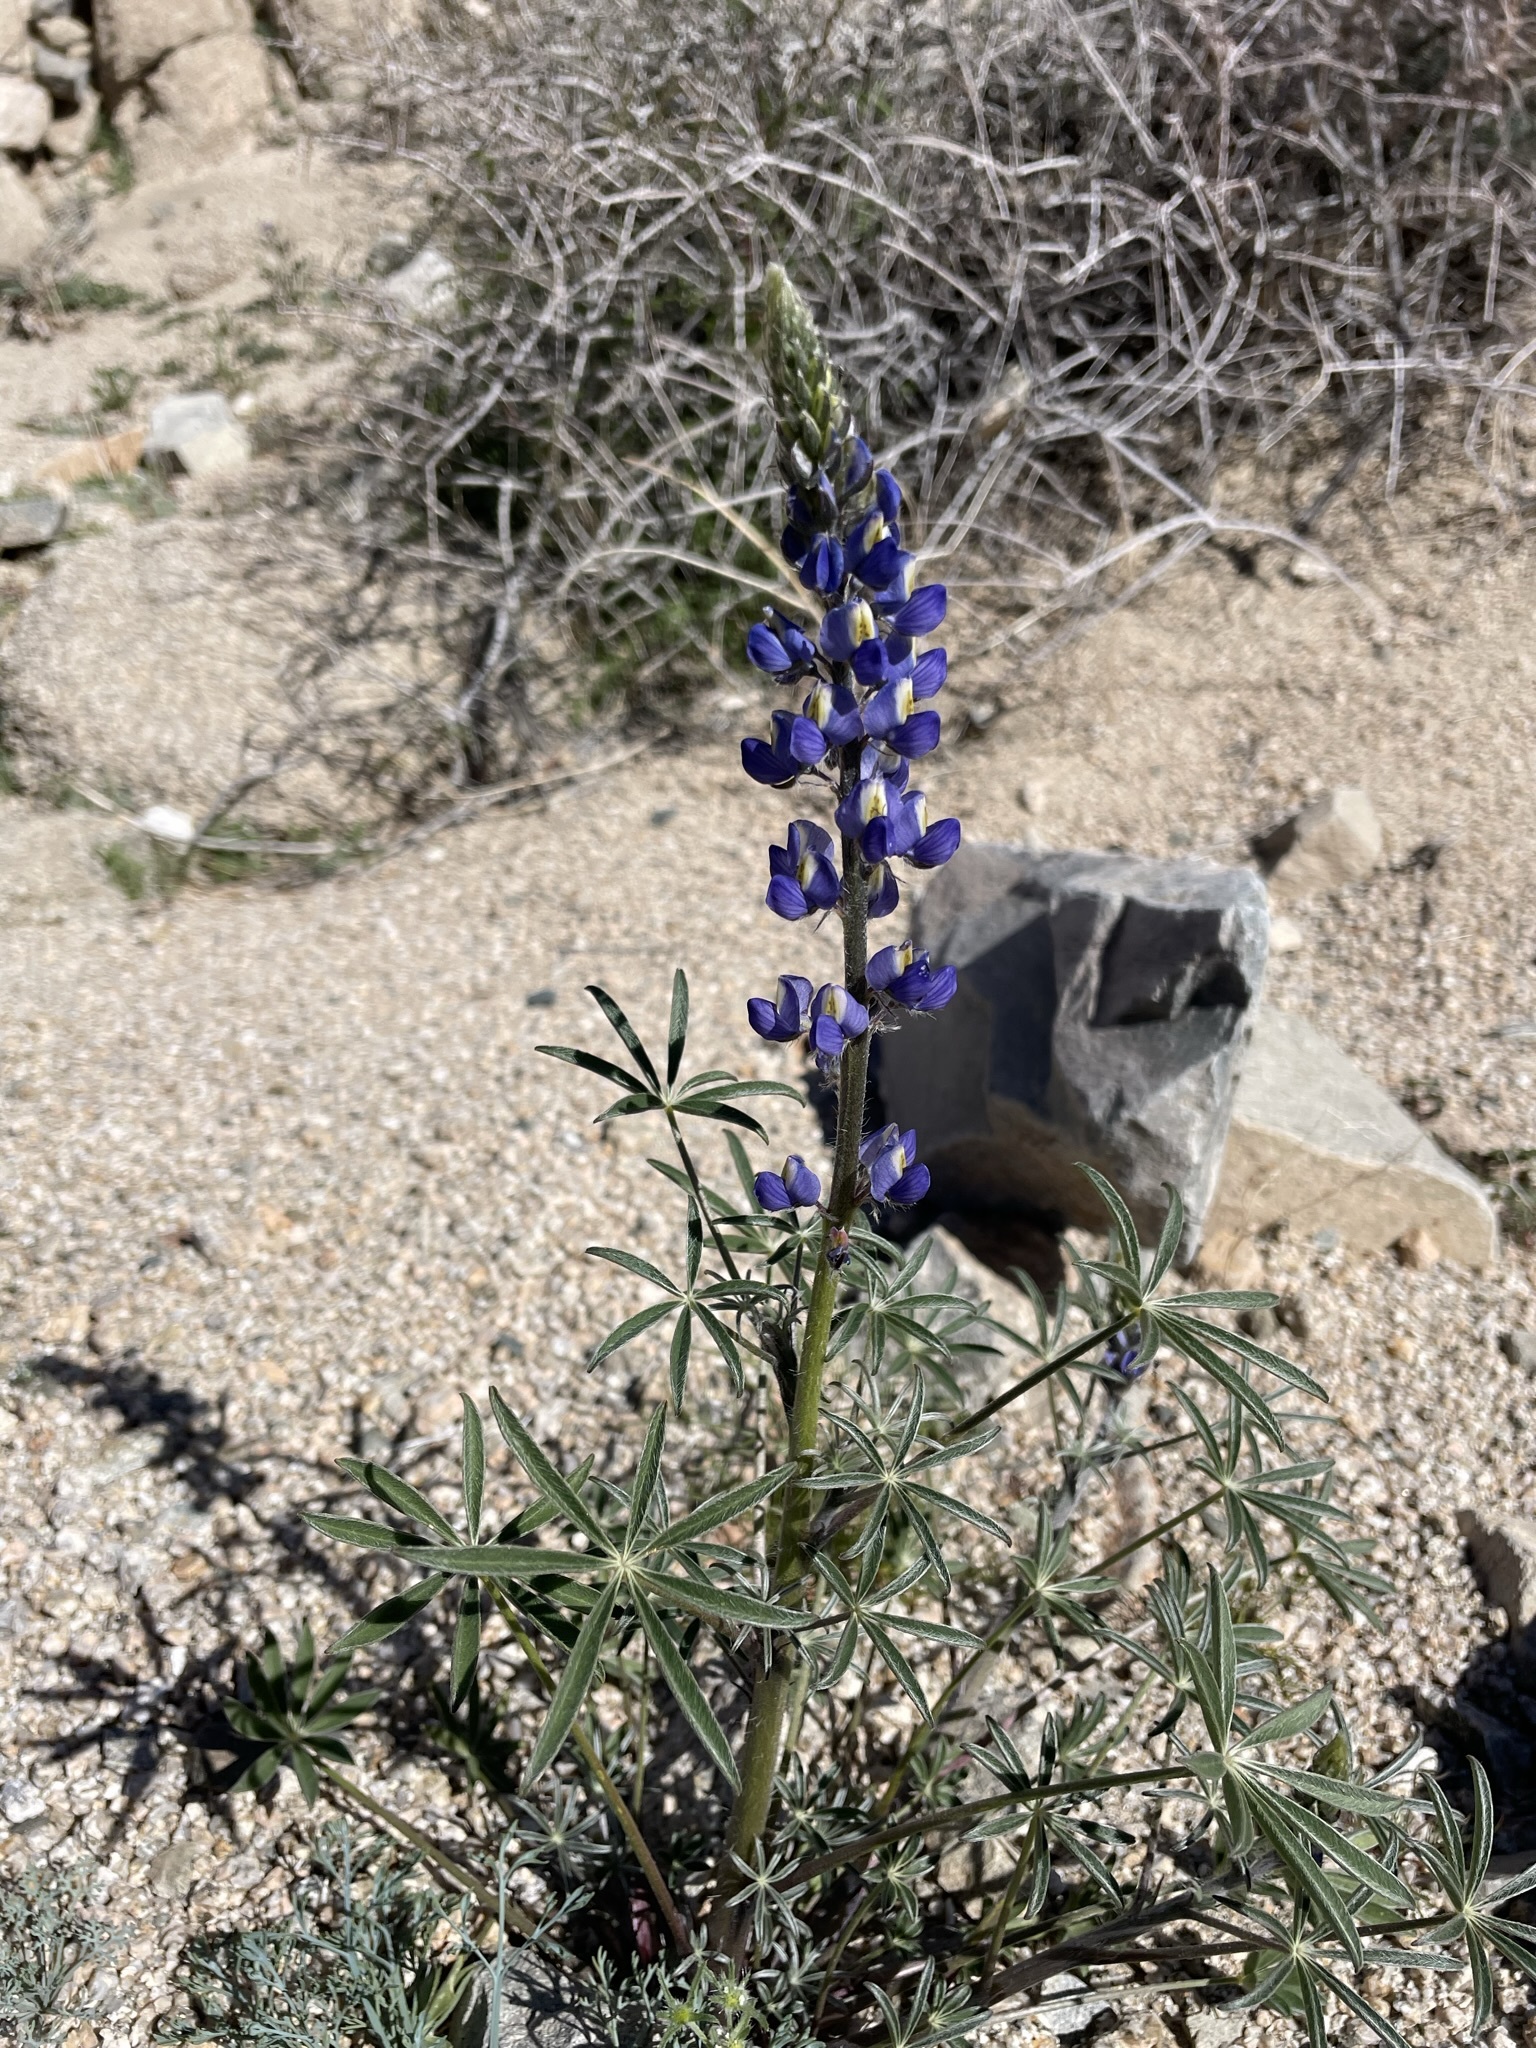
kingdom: Plantae
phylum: Tracheophyta
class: Magnoliopsida
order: Fabales
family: Fabaceae
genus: Lupinus
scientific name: Lupinus sparsiflorus
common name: Coulter's lupine
